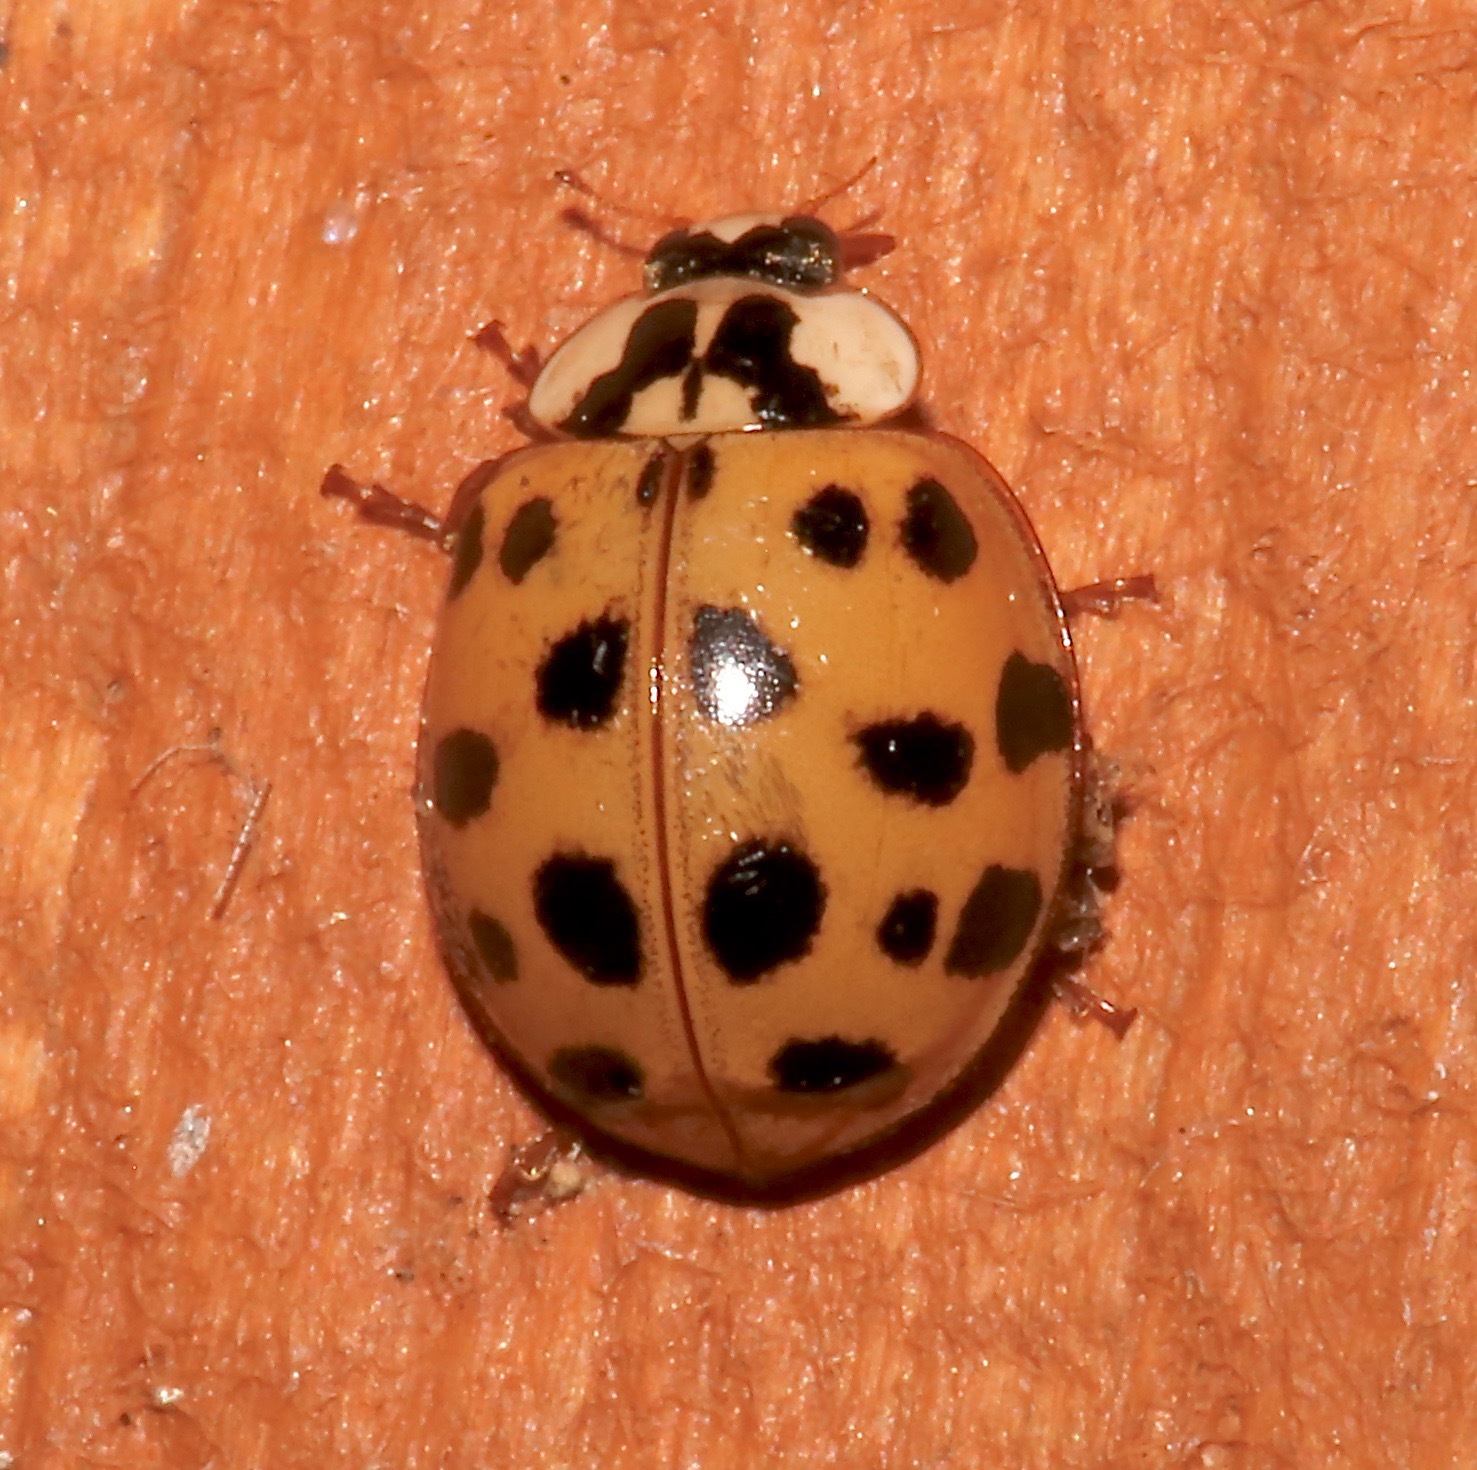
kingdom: Animalia
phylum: Arthropoda
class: Insecta
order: Coleoptera
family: Coccinellidae
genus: Harmonia
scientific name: Harmonia axyridis
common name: Harlequin ladybird
